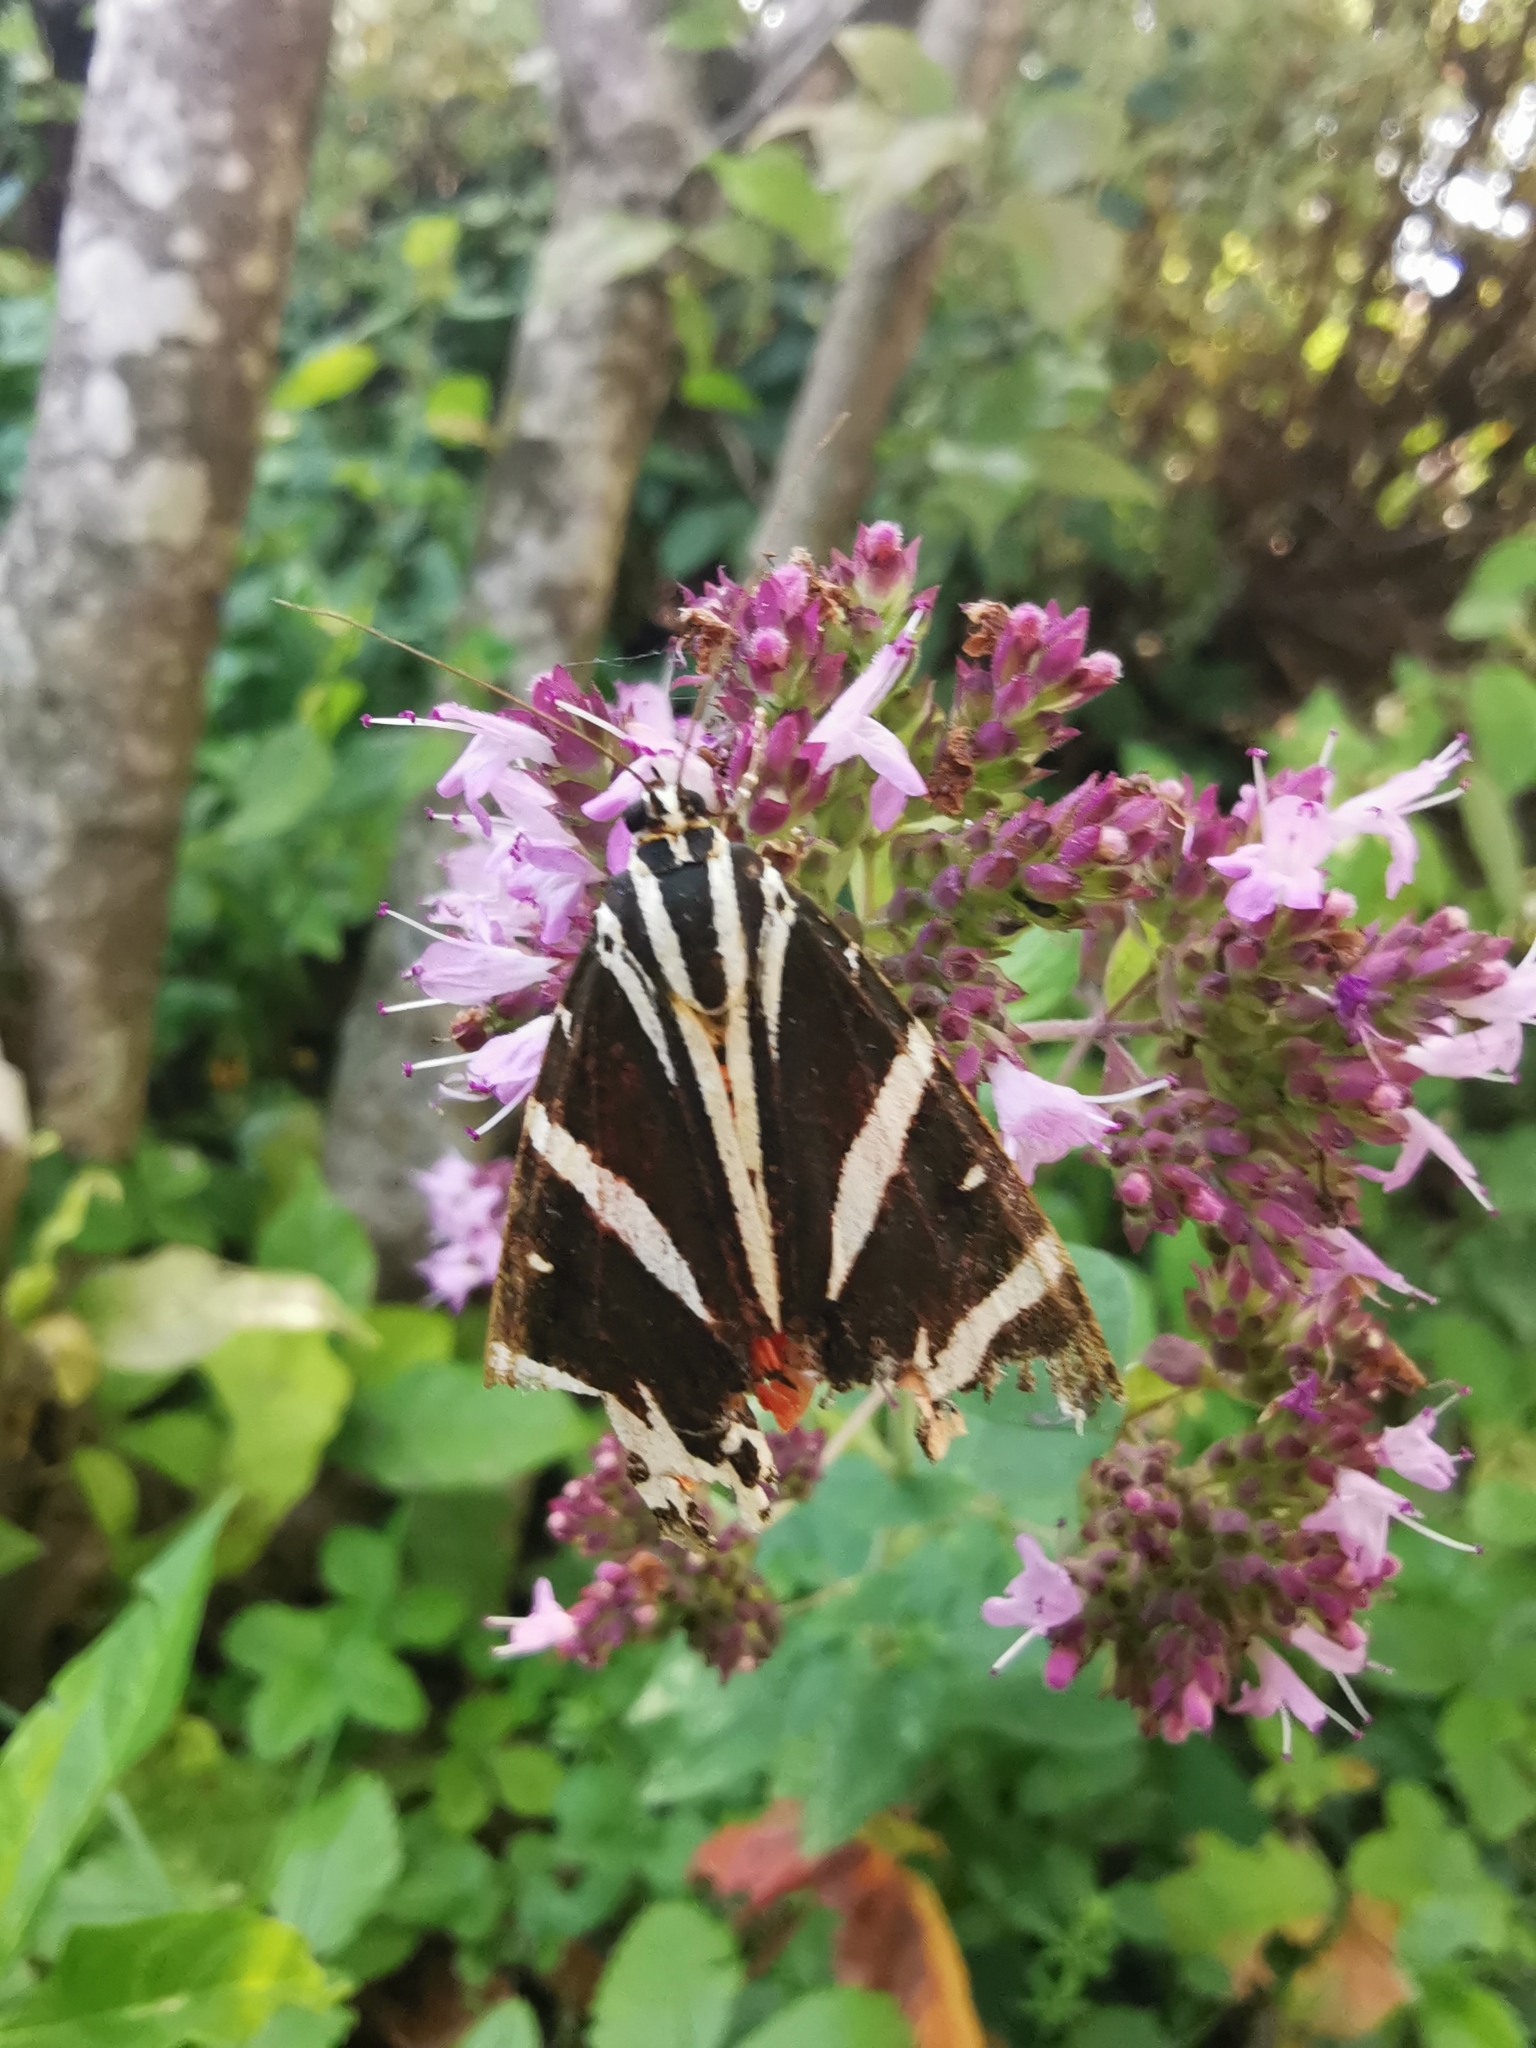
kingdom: Animalia
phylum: Arthropoda
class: Insecta
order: Lepidoptera
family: Erebidae
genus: Euplagia
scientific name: Euplagia quadripunctaria
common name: Jersey tiger
